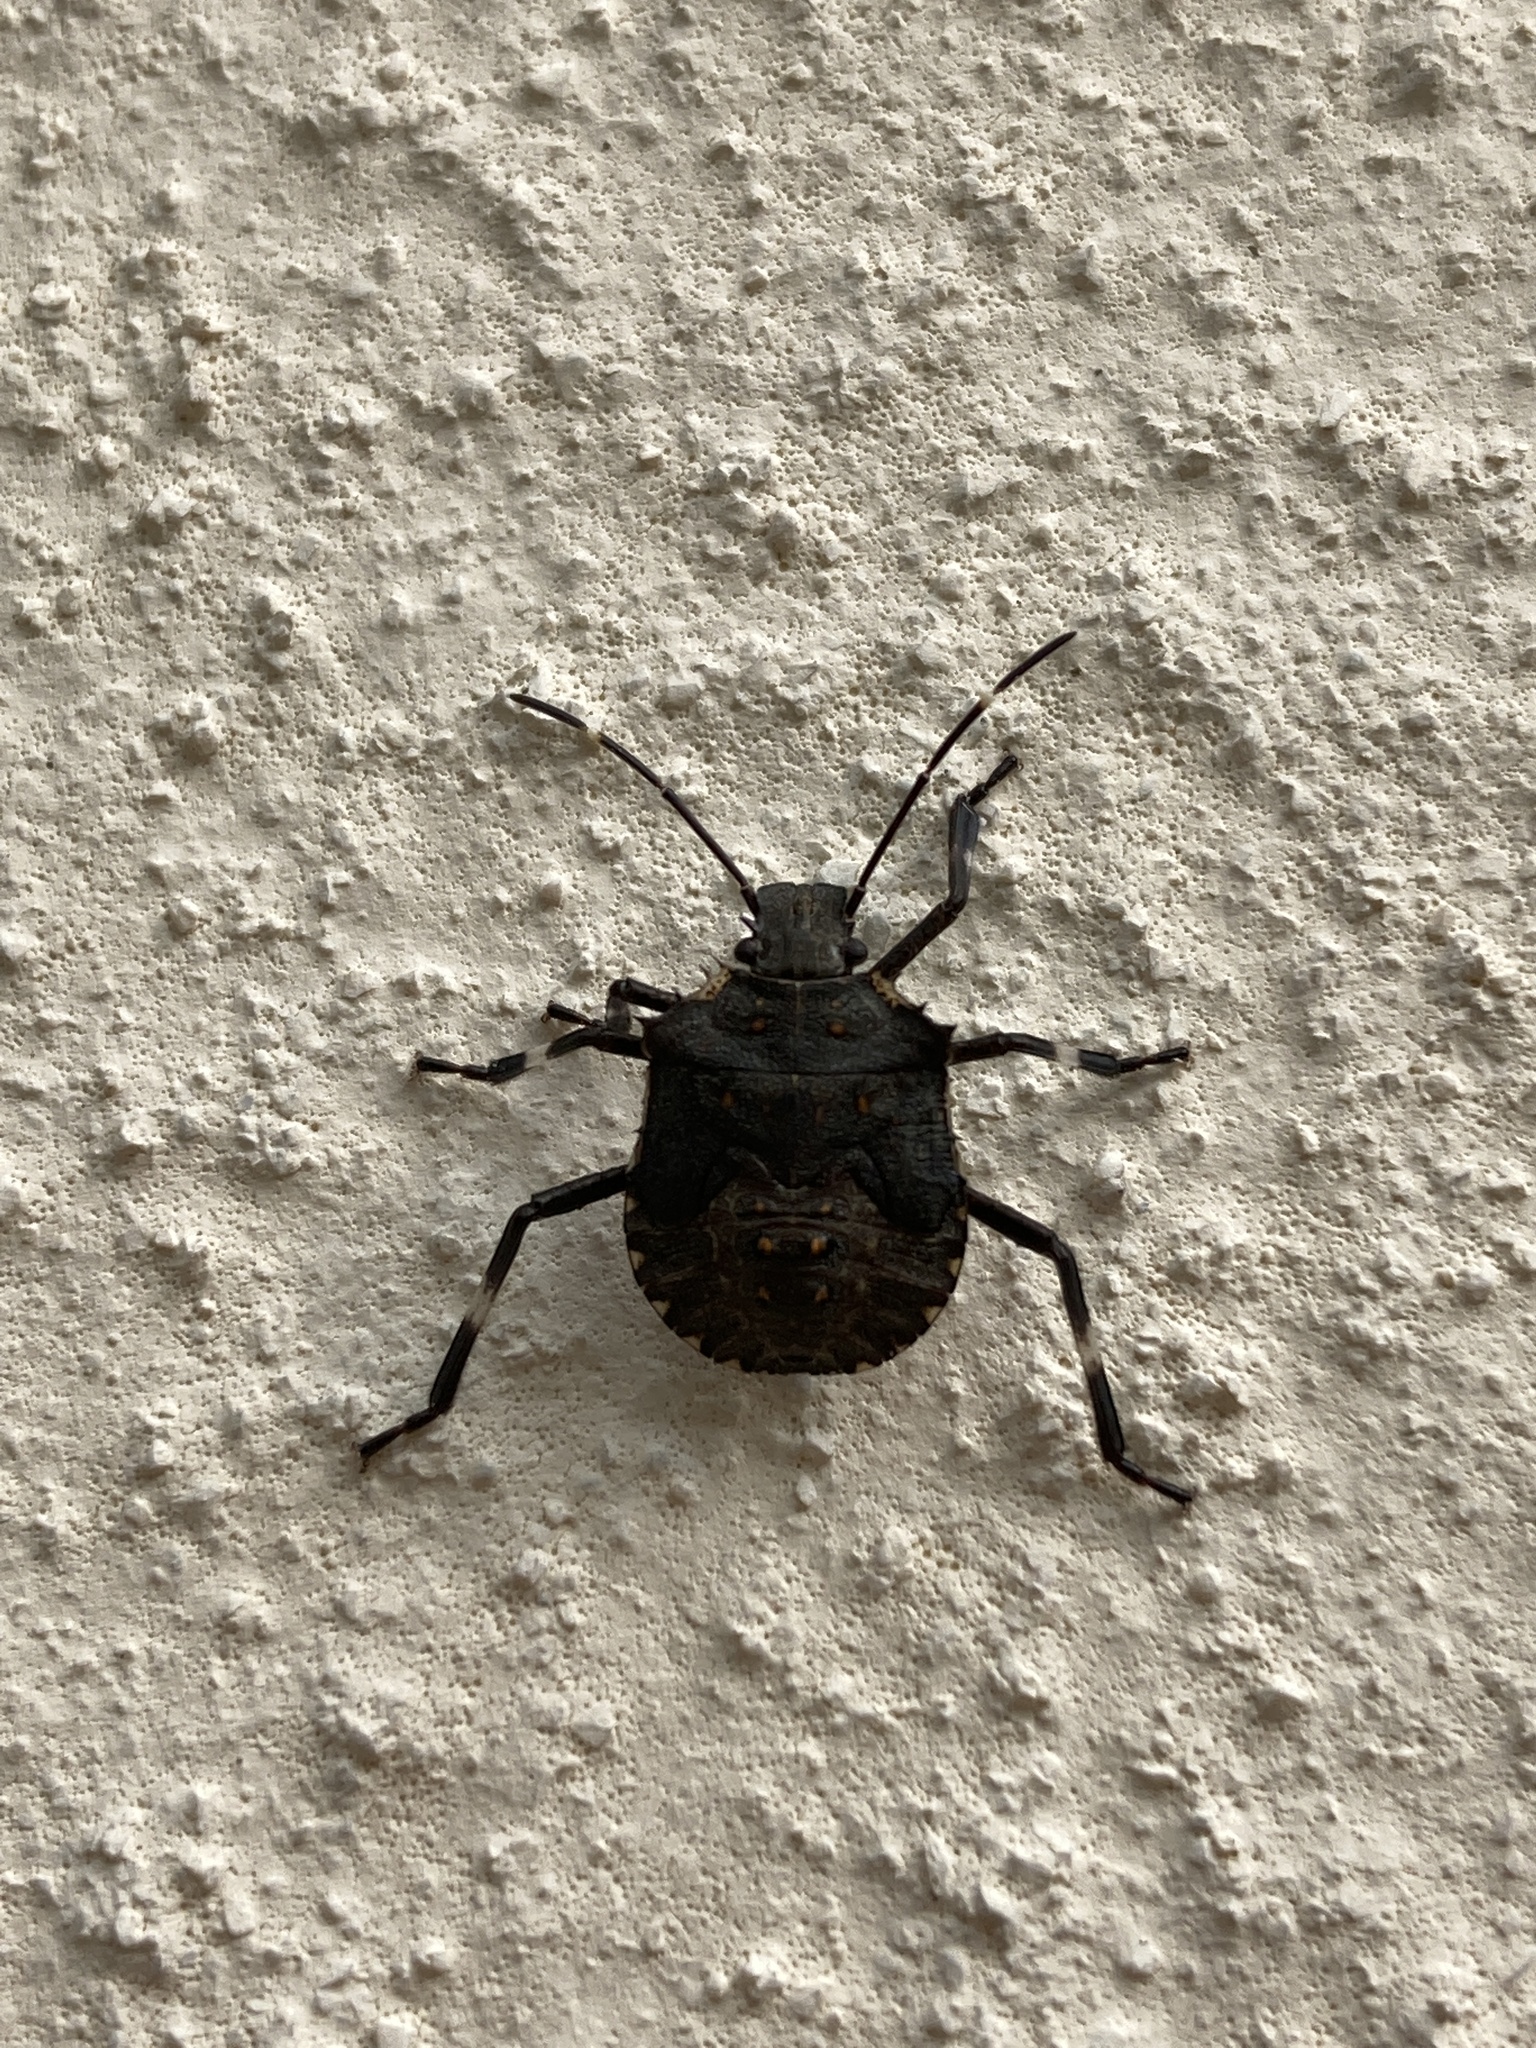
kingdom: Animalia
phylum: Arthropoda
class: Insecta
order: Hemiptera
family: Pentatomidae
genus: Halyomorpha
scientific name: Halyomorpha halys
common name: Brown marmorated stink bug
